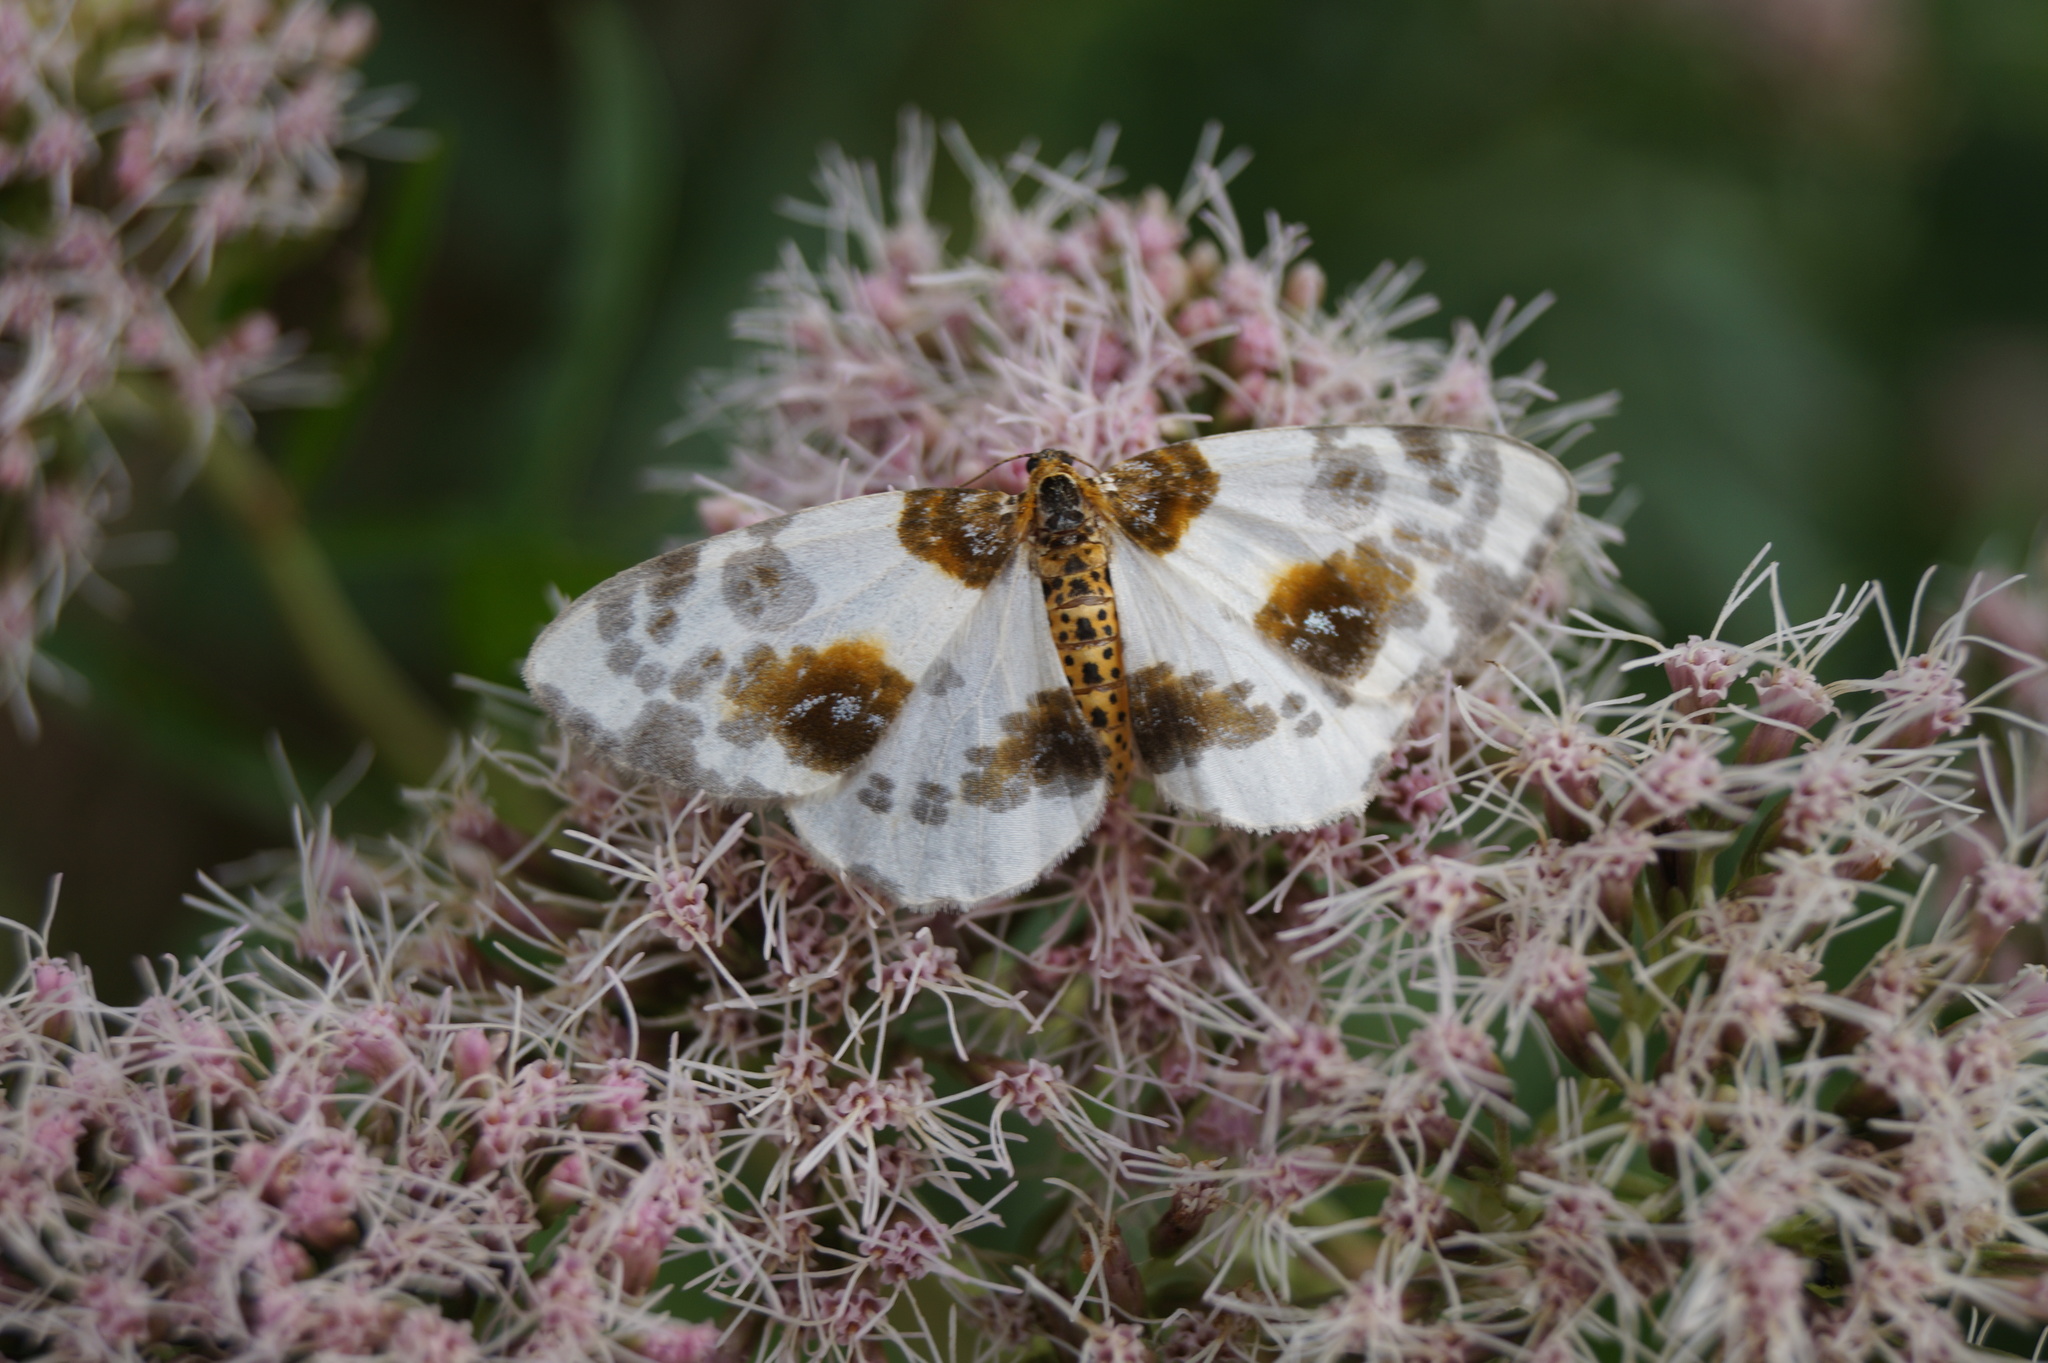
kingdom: Animalia
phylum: Arthropoda
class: Insecta
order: Lepidoptera
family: Geometridae
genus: Abraxas
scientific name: Abraxas sylvata
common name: Clouded magpie
